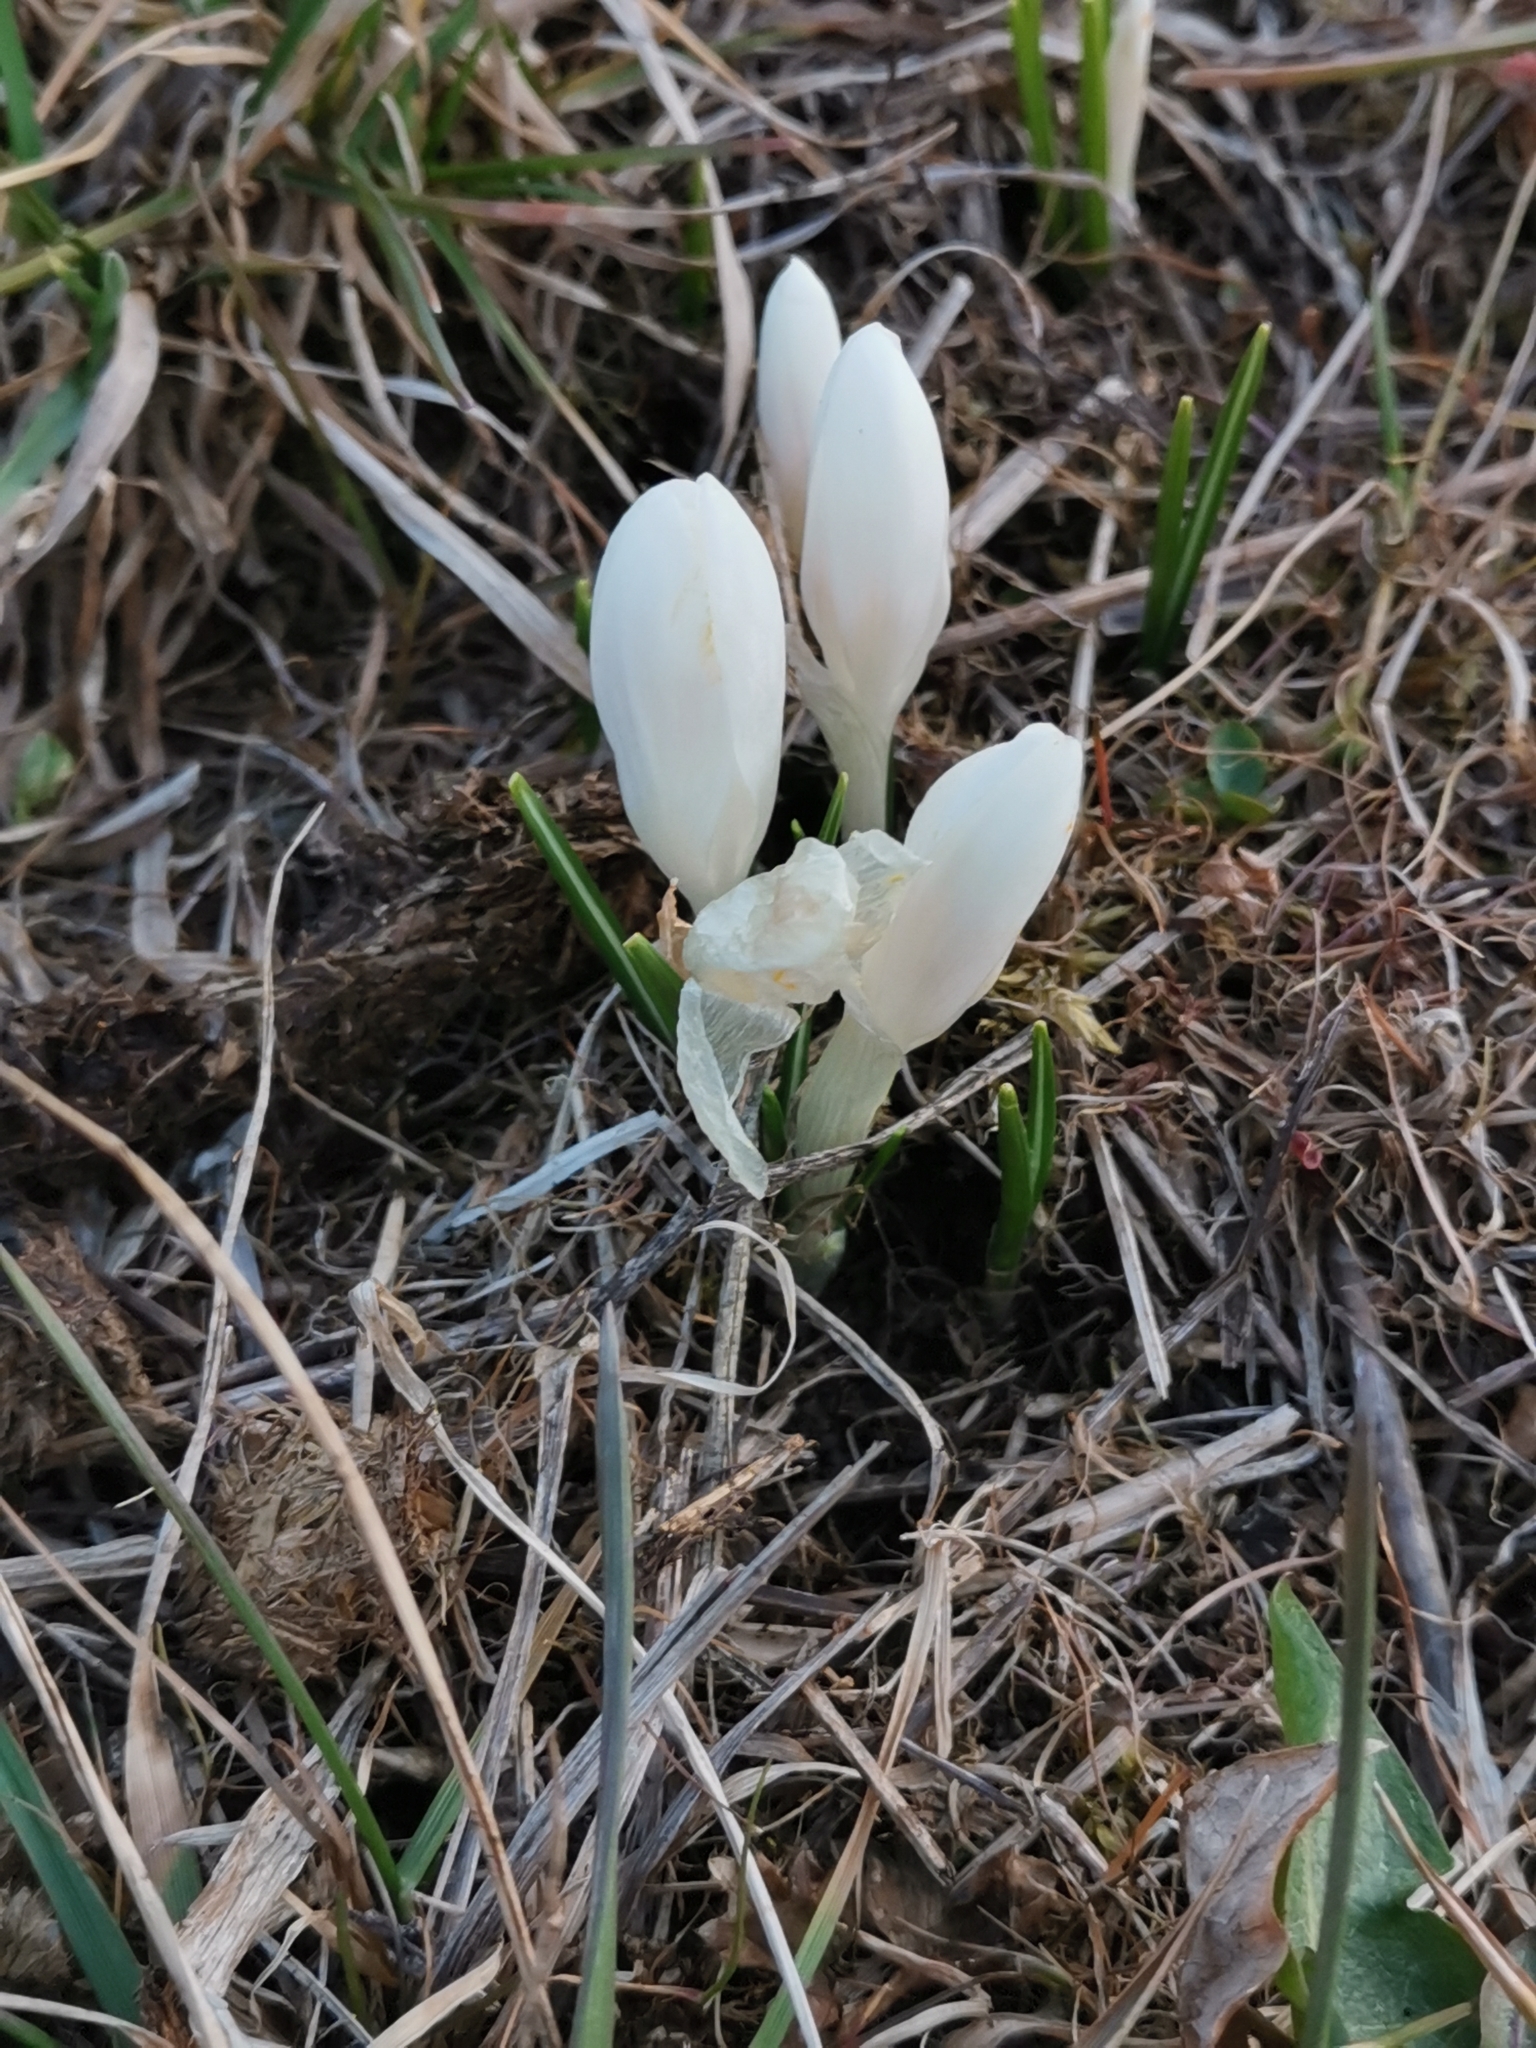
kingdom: Plantae
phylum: Tracheophyta
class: Liliopsida
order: Asparagales
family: Iridaceae
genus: Crocus
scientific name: Crocus vernus
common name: Spring crocus
